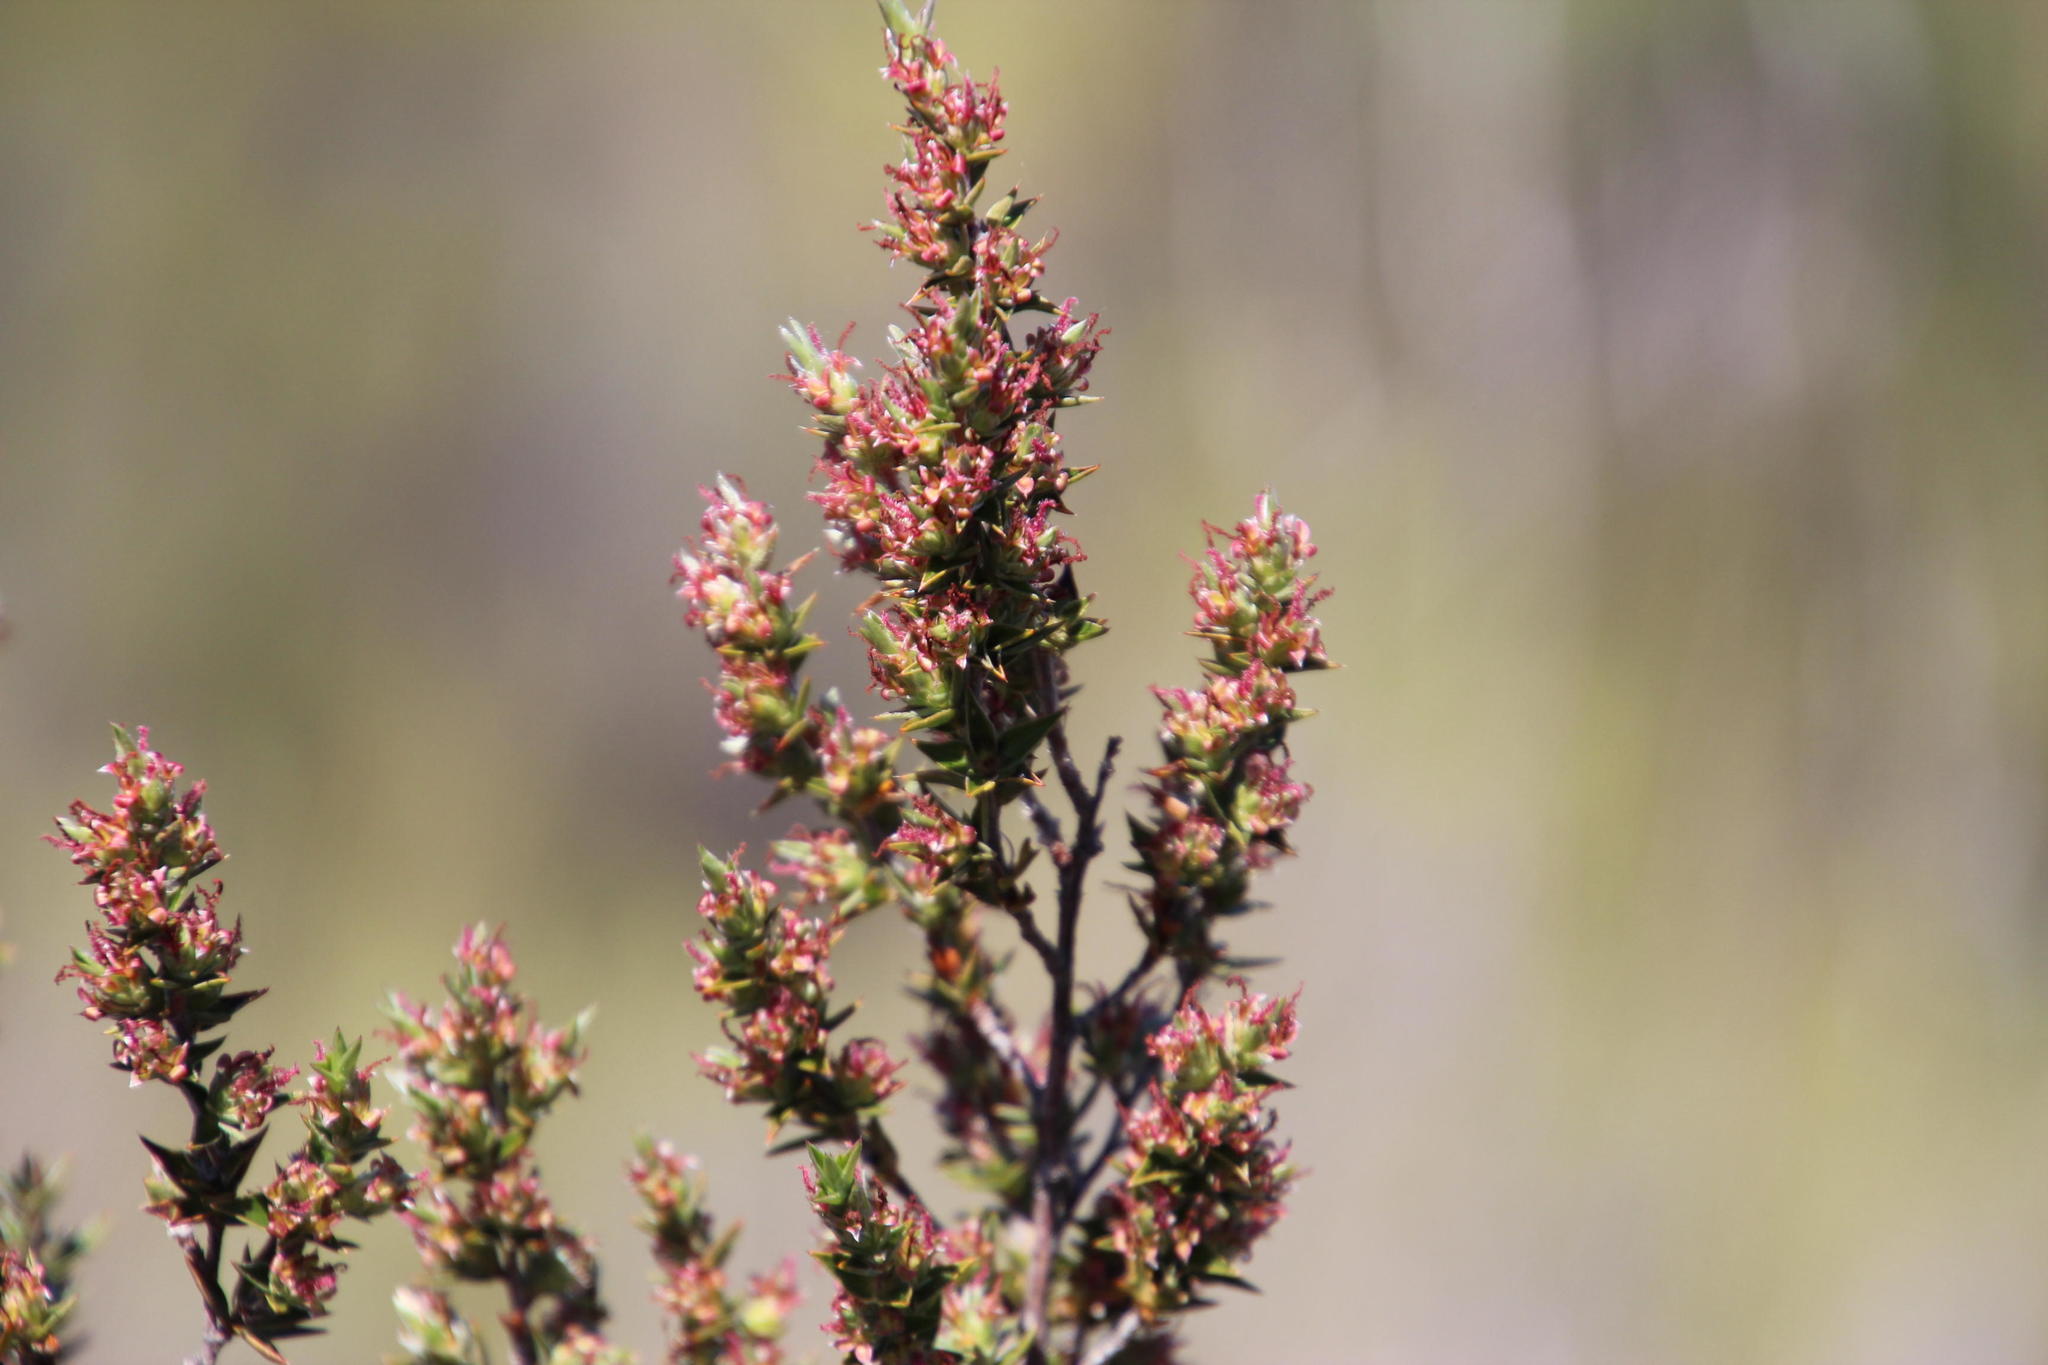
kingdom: Plantae
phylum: Tracheophyta
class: Magnoliopsida
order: Rosales
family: Rosaceae
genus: Cliffortia
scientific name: Cliffortia ruscifolia
